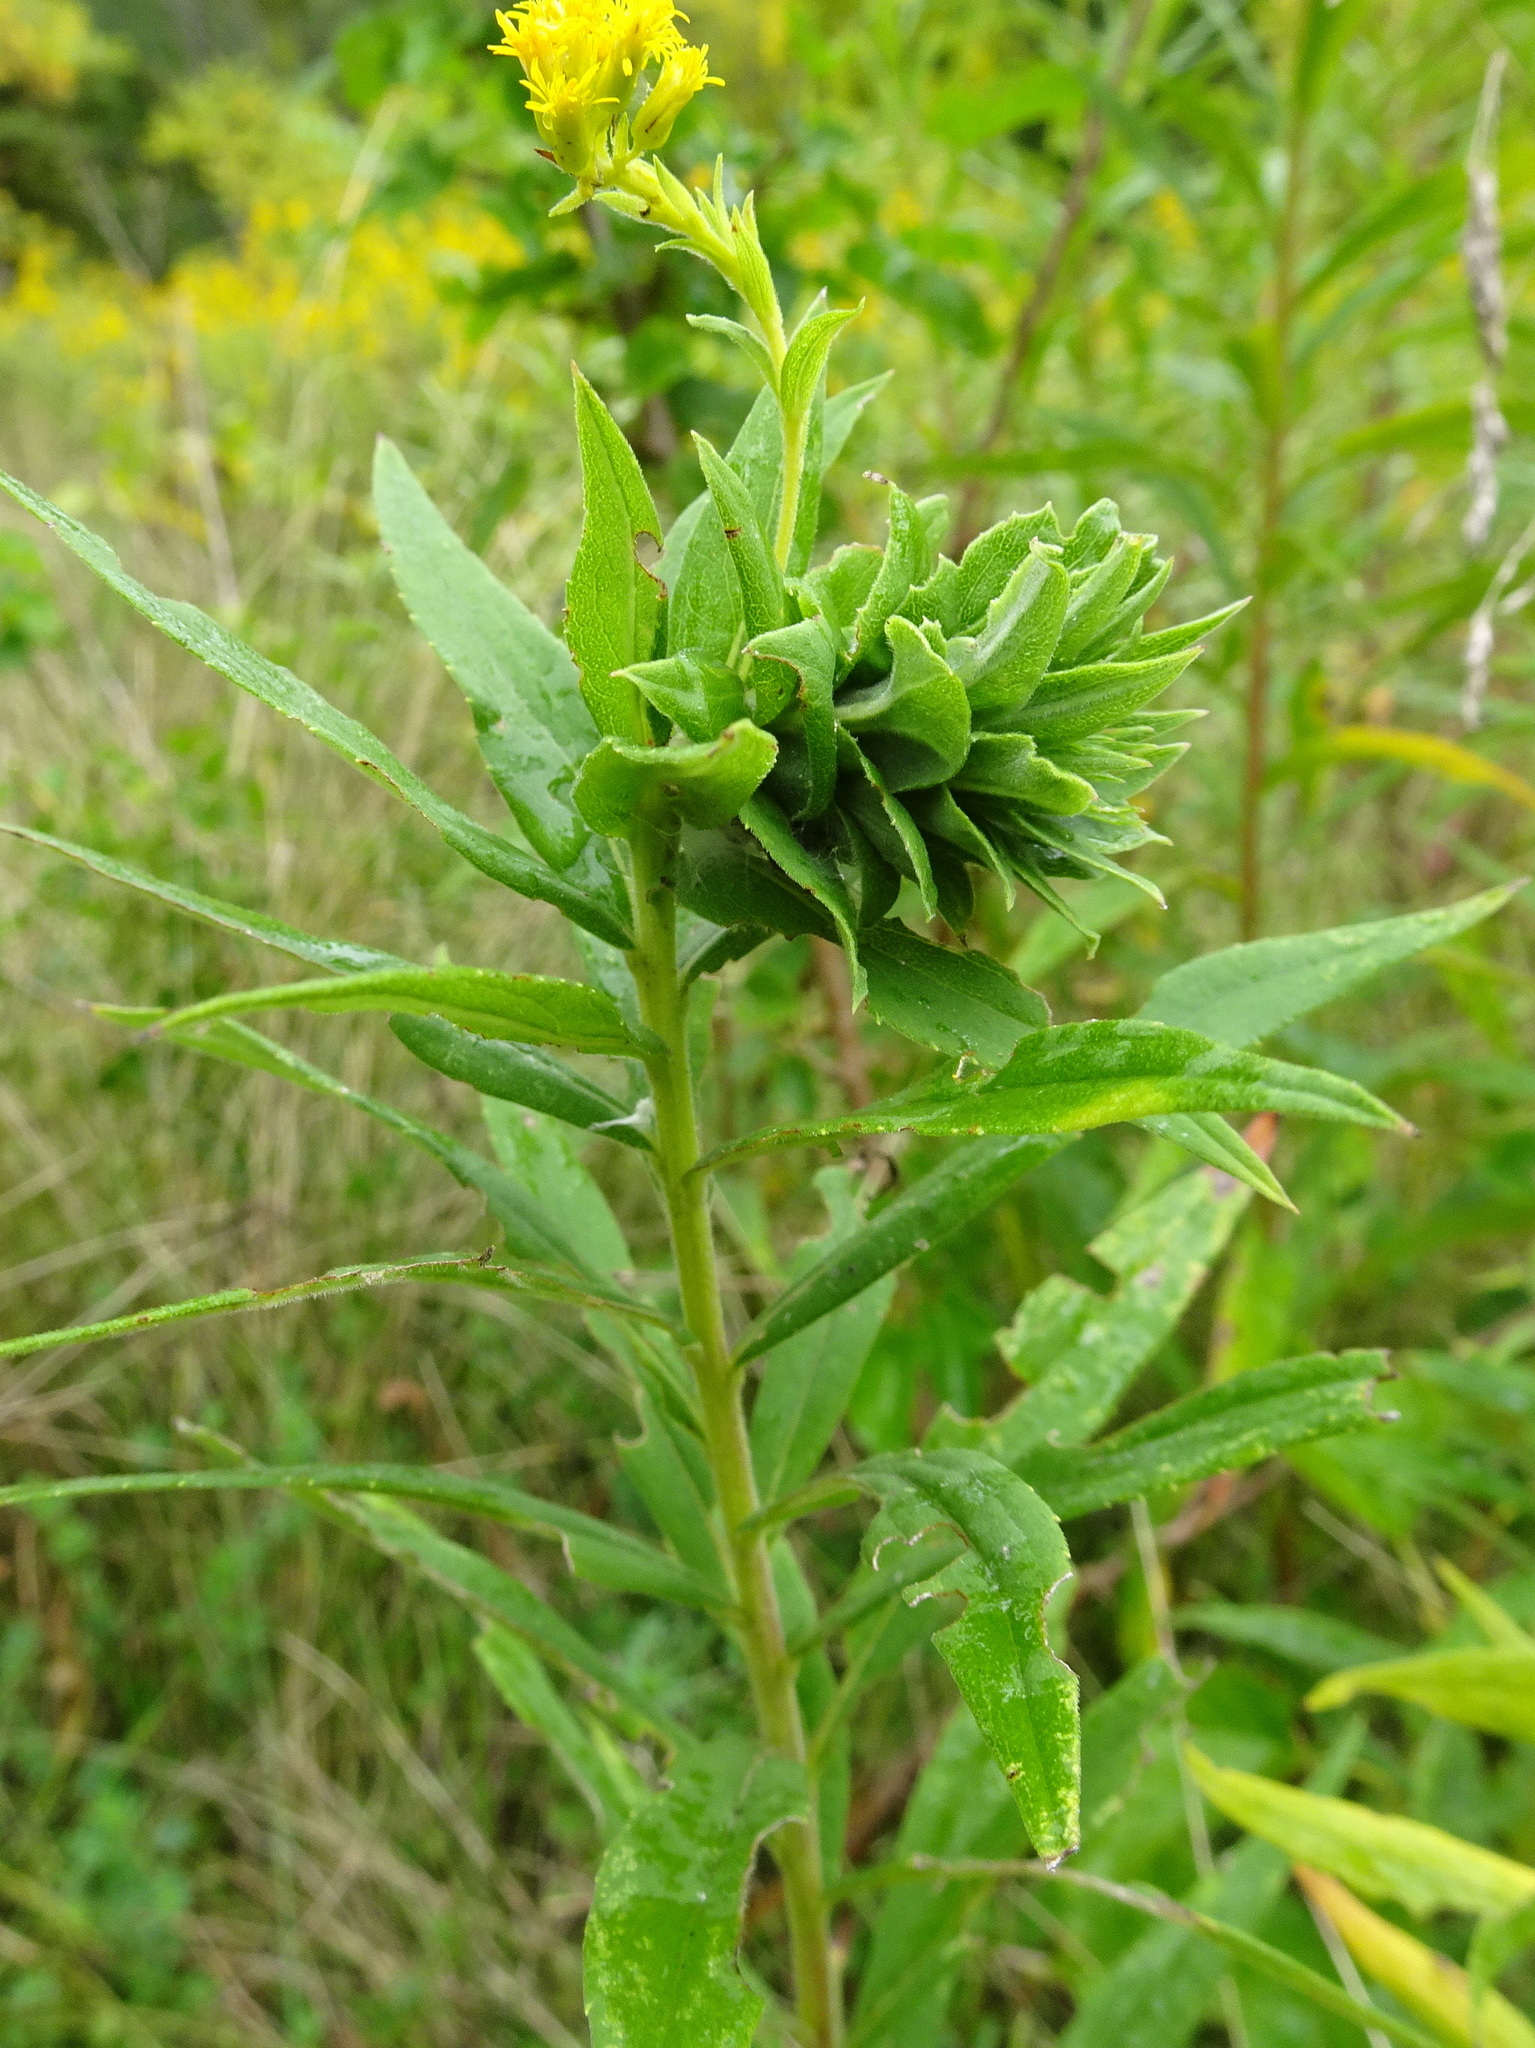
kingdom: Animalia
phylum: Arthropoda
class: Insecta
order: Diptera
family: Cecidomyiidae
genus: Rhopalomyia
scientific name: Rhopalomyia solidaginis
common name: Goldenrod bunch gall midge
